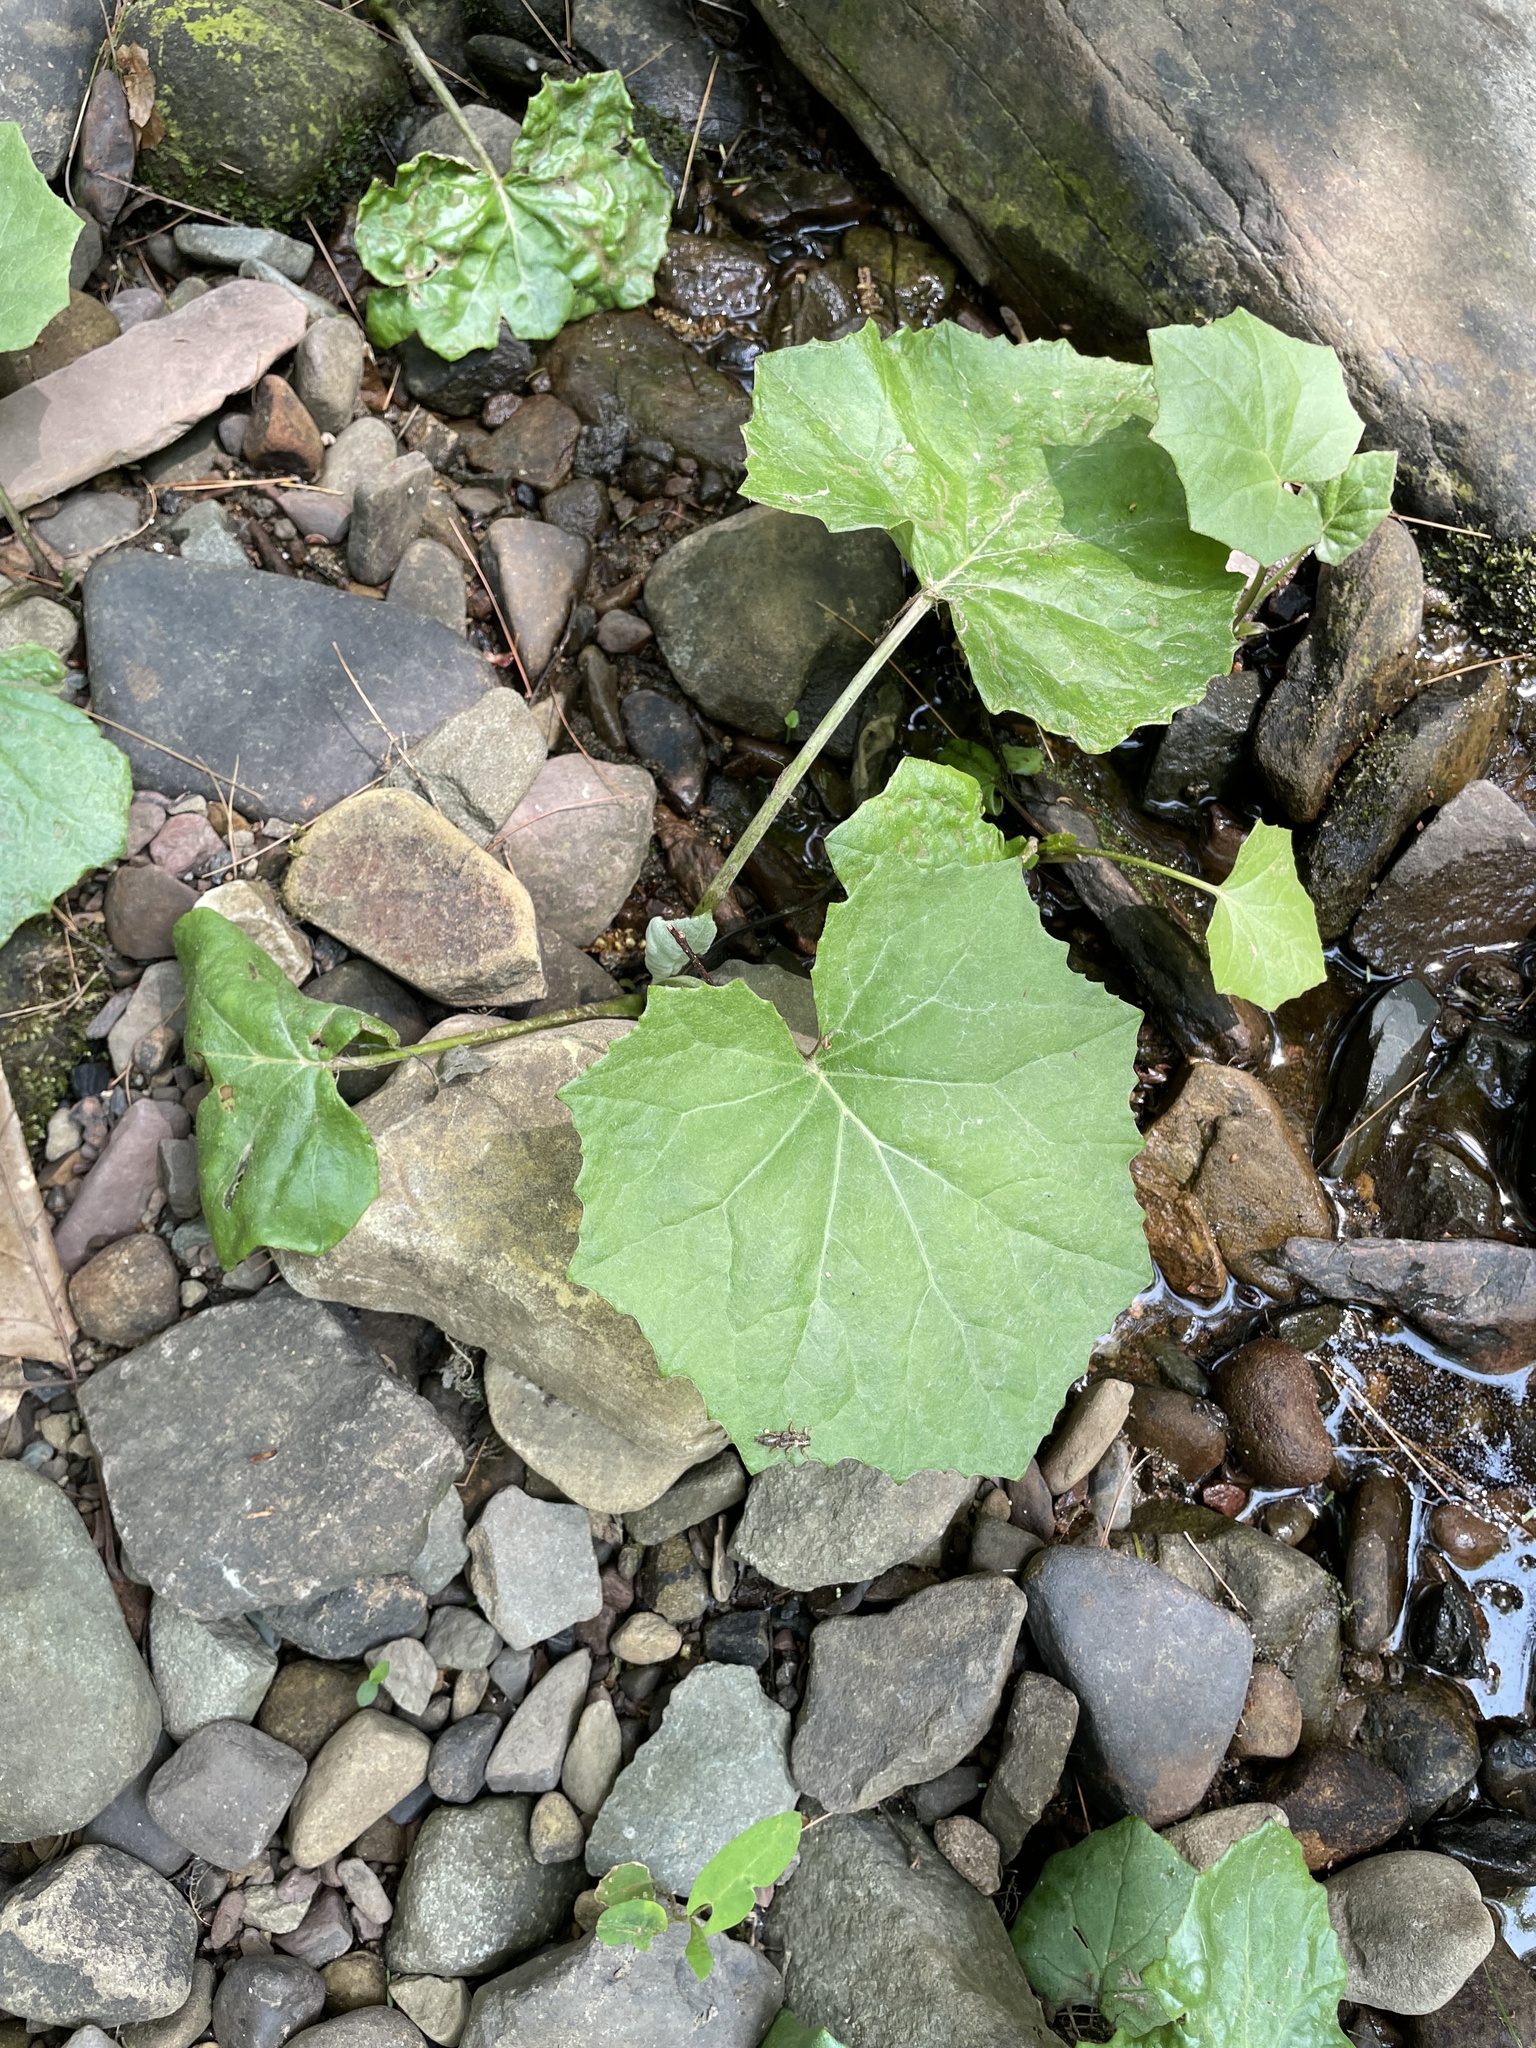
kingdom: Plantae
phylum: Tracheophyta
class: Magnoliopsida
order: Asterales
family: Asteraceae
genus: Tussilago
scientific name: Tussilago farfara
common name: Coltsfoot
